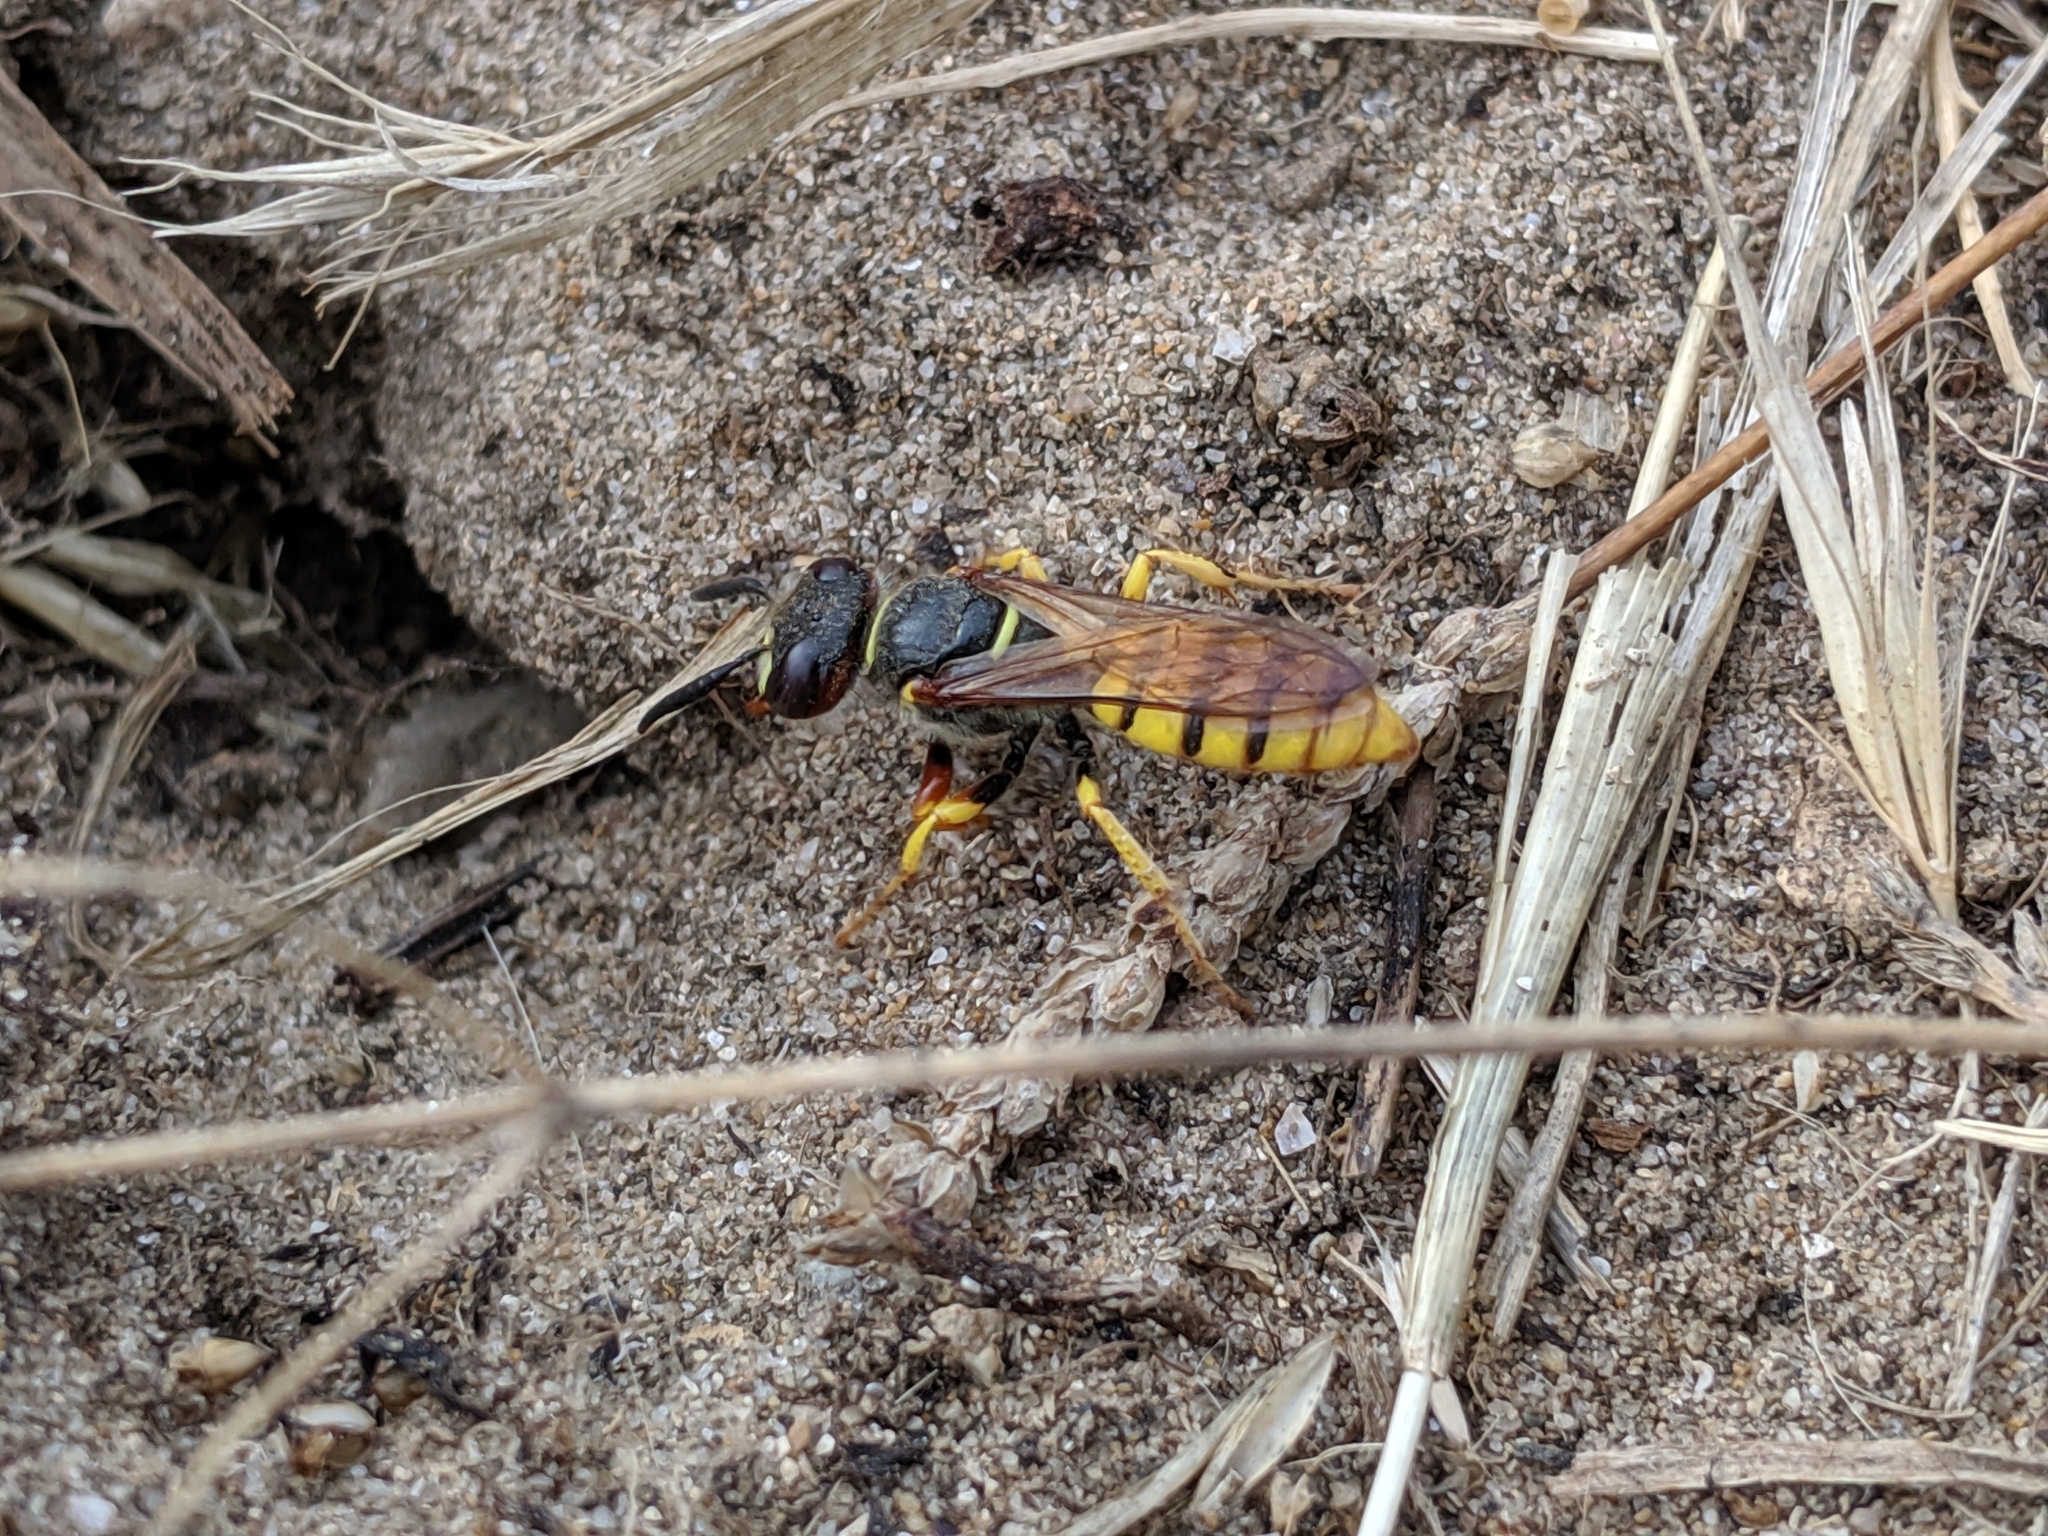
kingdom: Animalia
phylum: Arthropoda
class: Insecta
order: Hymenoptera
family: Crabronidae
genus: Philanthus
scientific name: Philanthus triangulum
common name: Bee wolf
